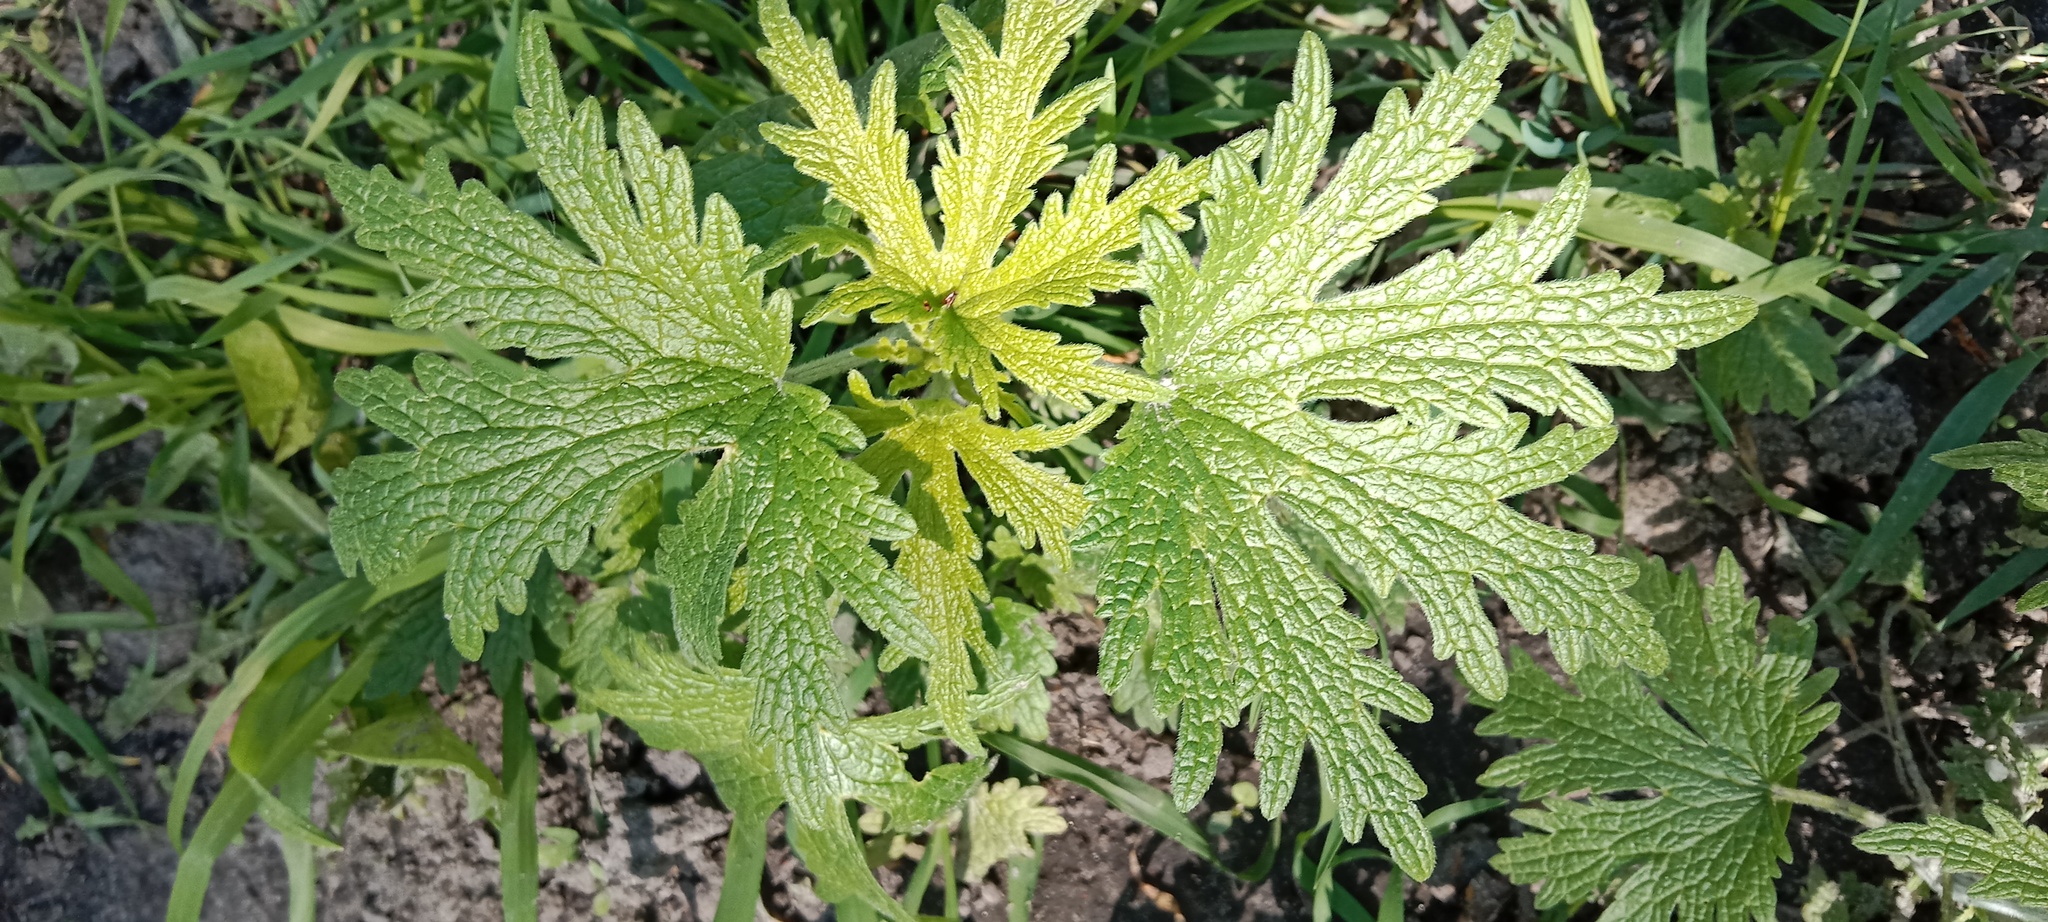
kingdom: Plantae
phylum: Tracheophyta
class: Magnoliopsida
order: Lamiales
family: Lamiaceae
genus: Leonurus
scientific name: Leonurus quinquelobatus
